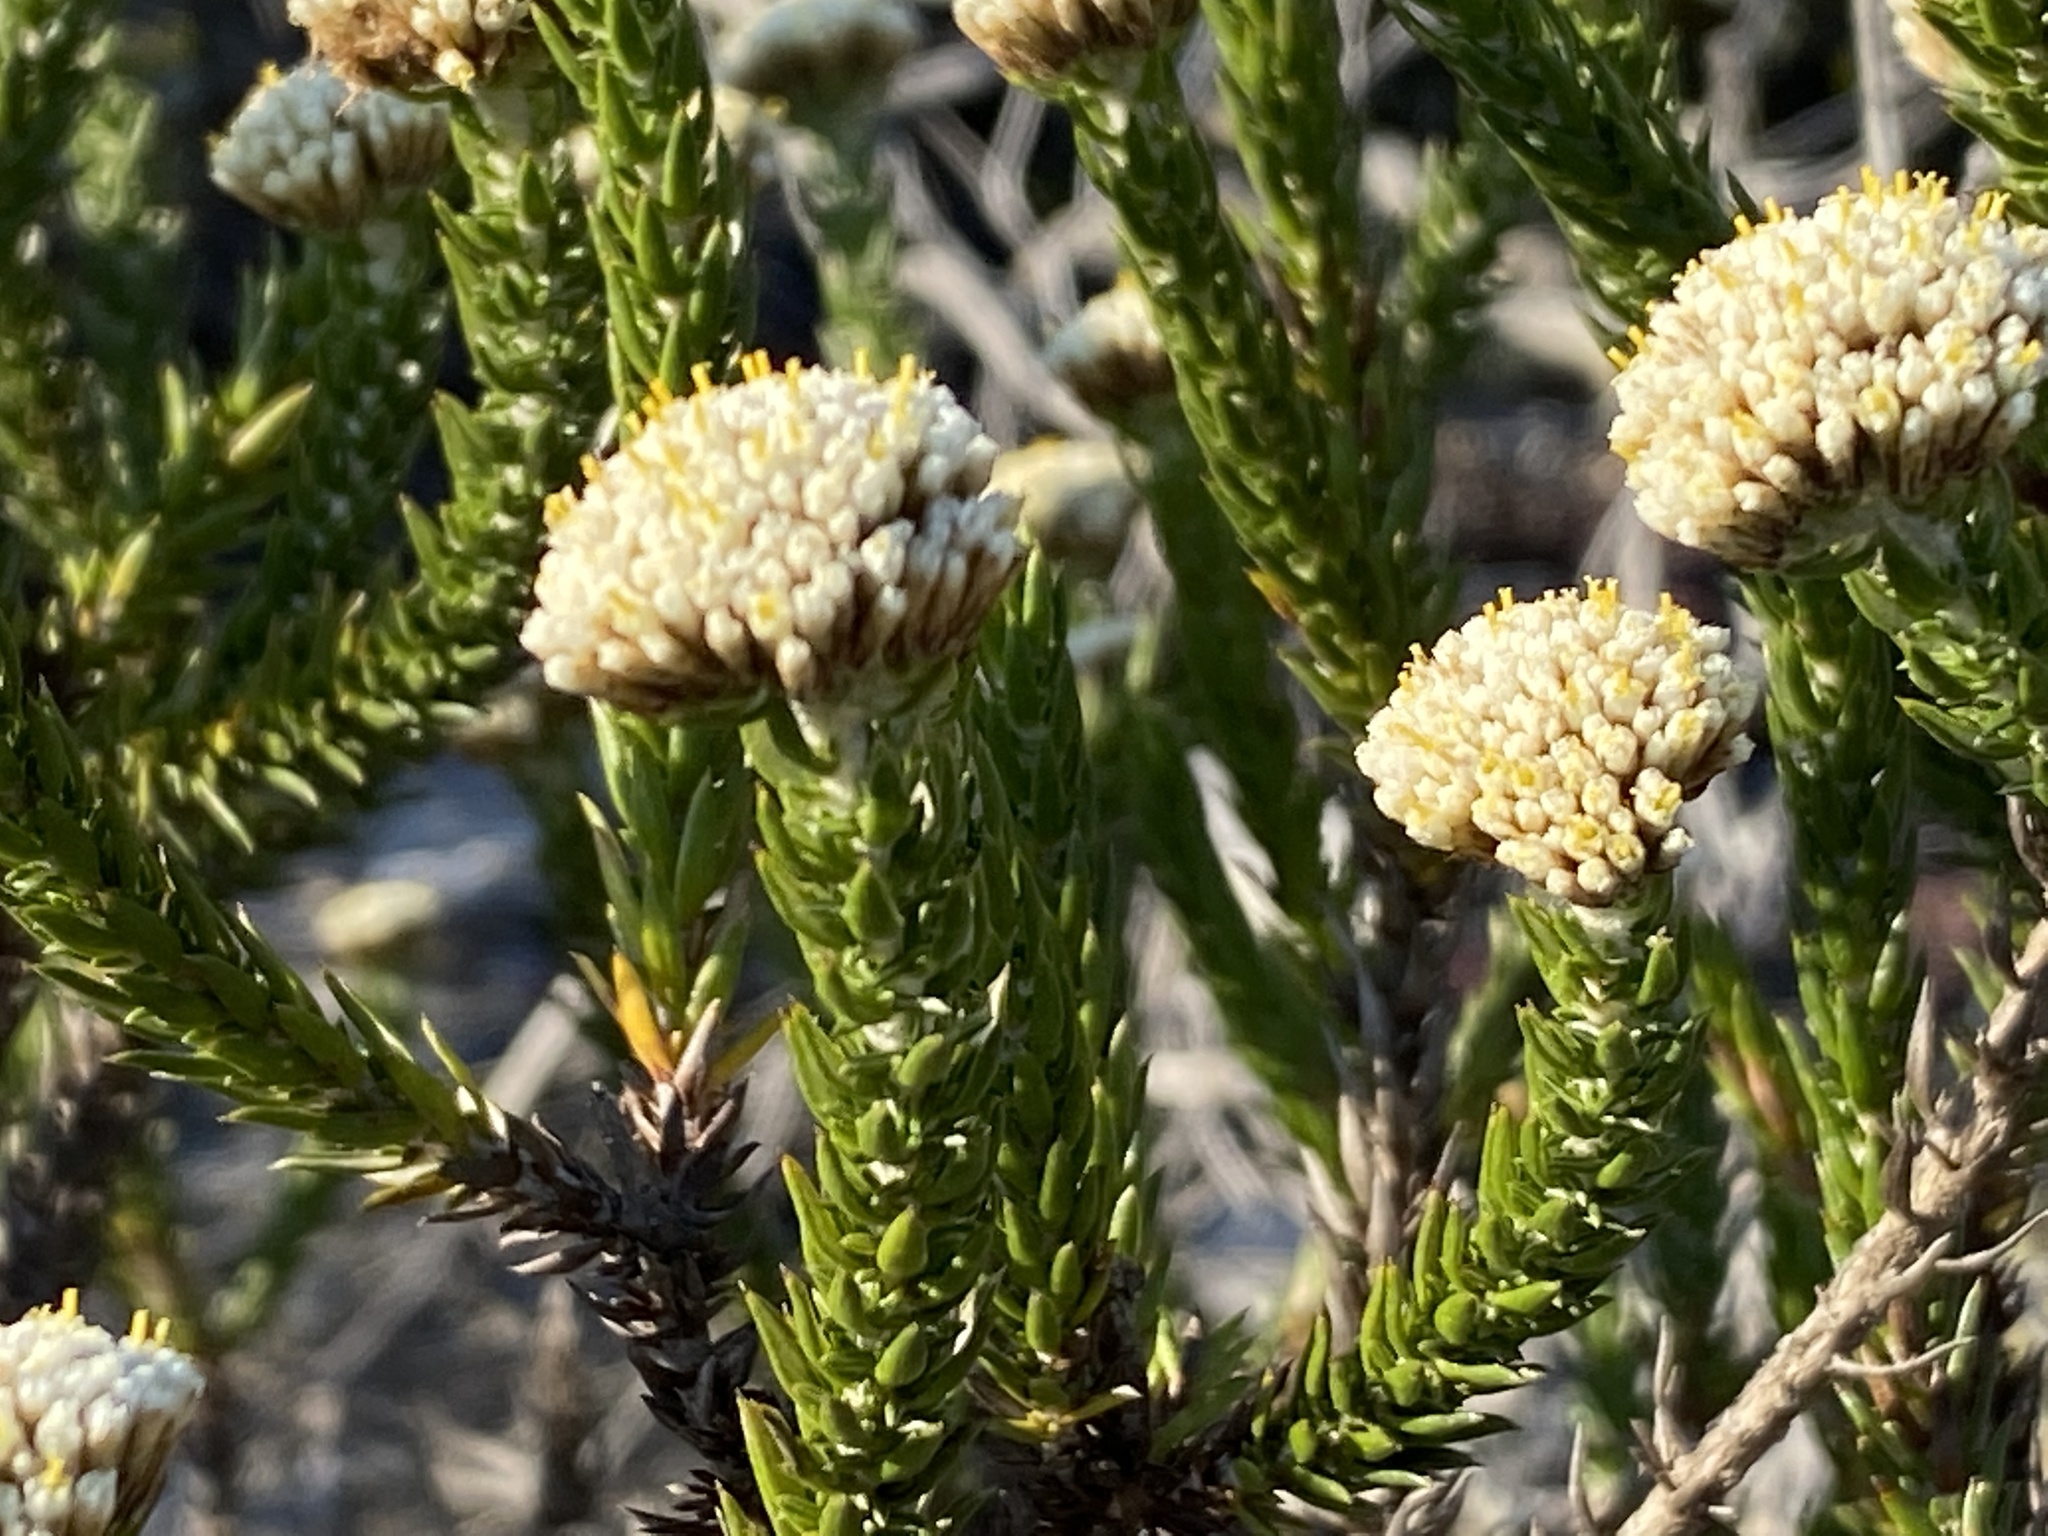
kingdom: Plantae
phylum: Tracheophyta
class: Magnoliopsida
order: Asterales
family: Asteraceae
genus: Metalasia
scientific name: Metalasia pungens
